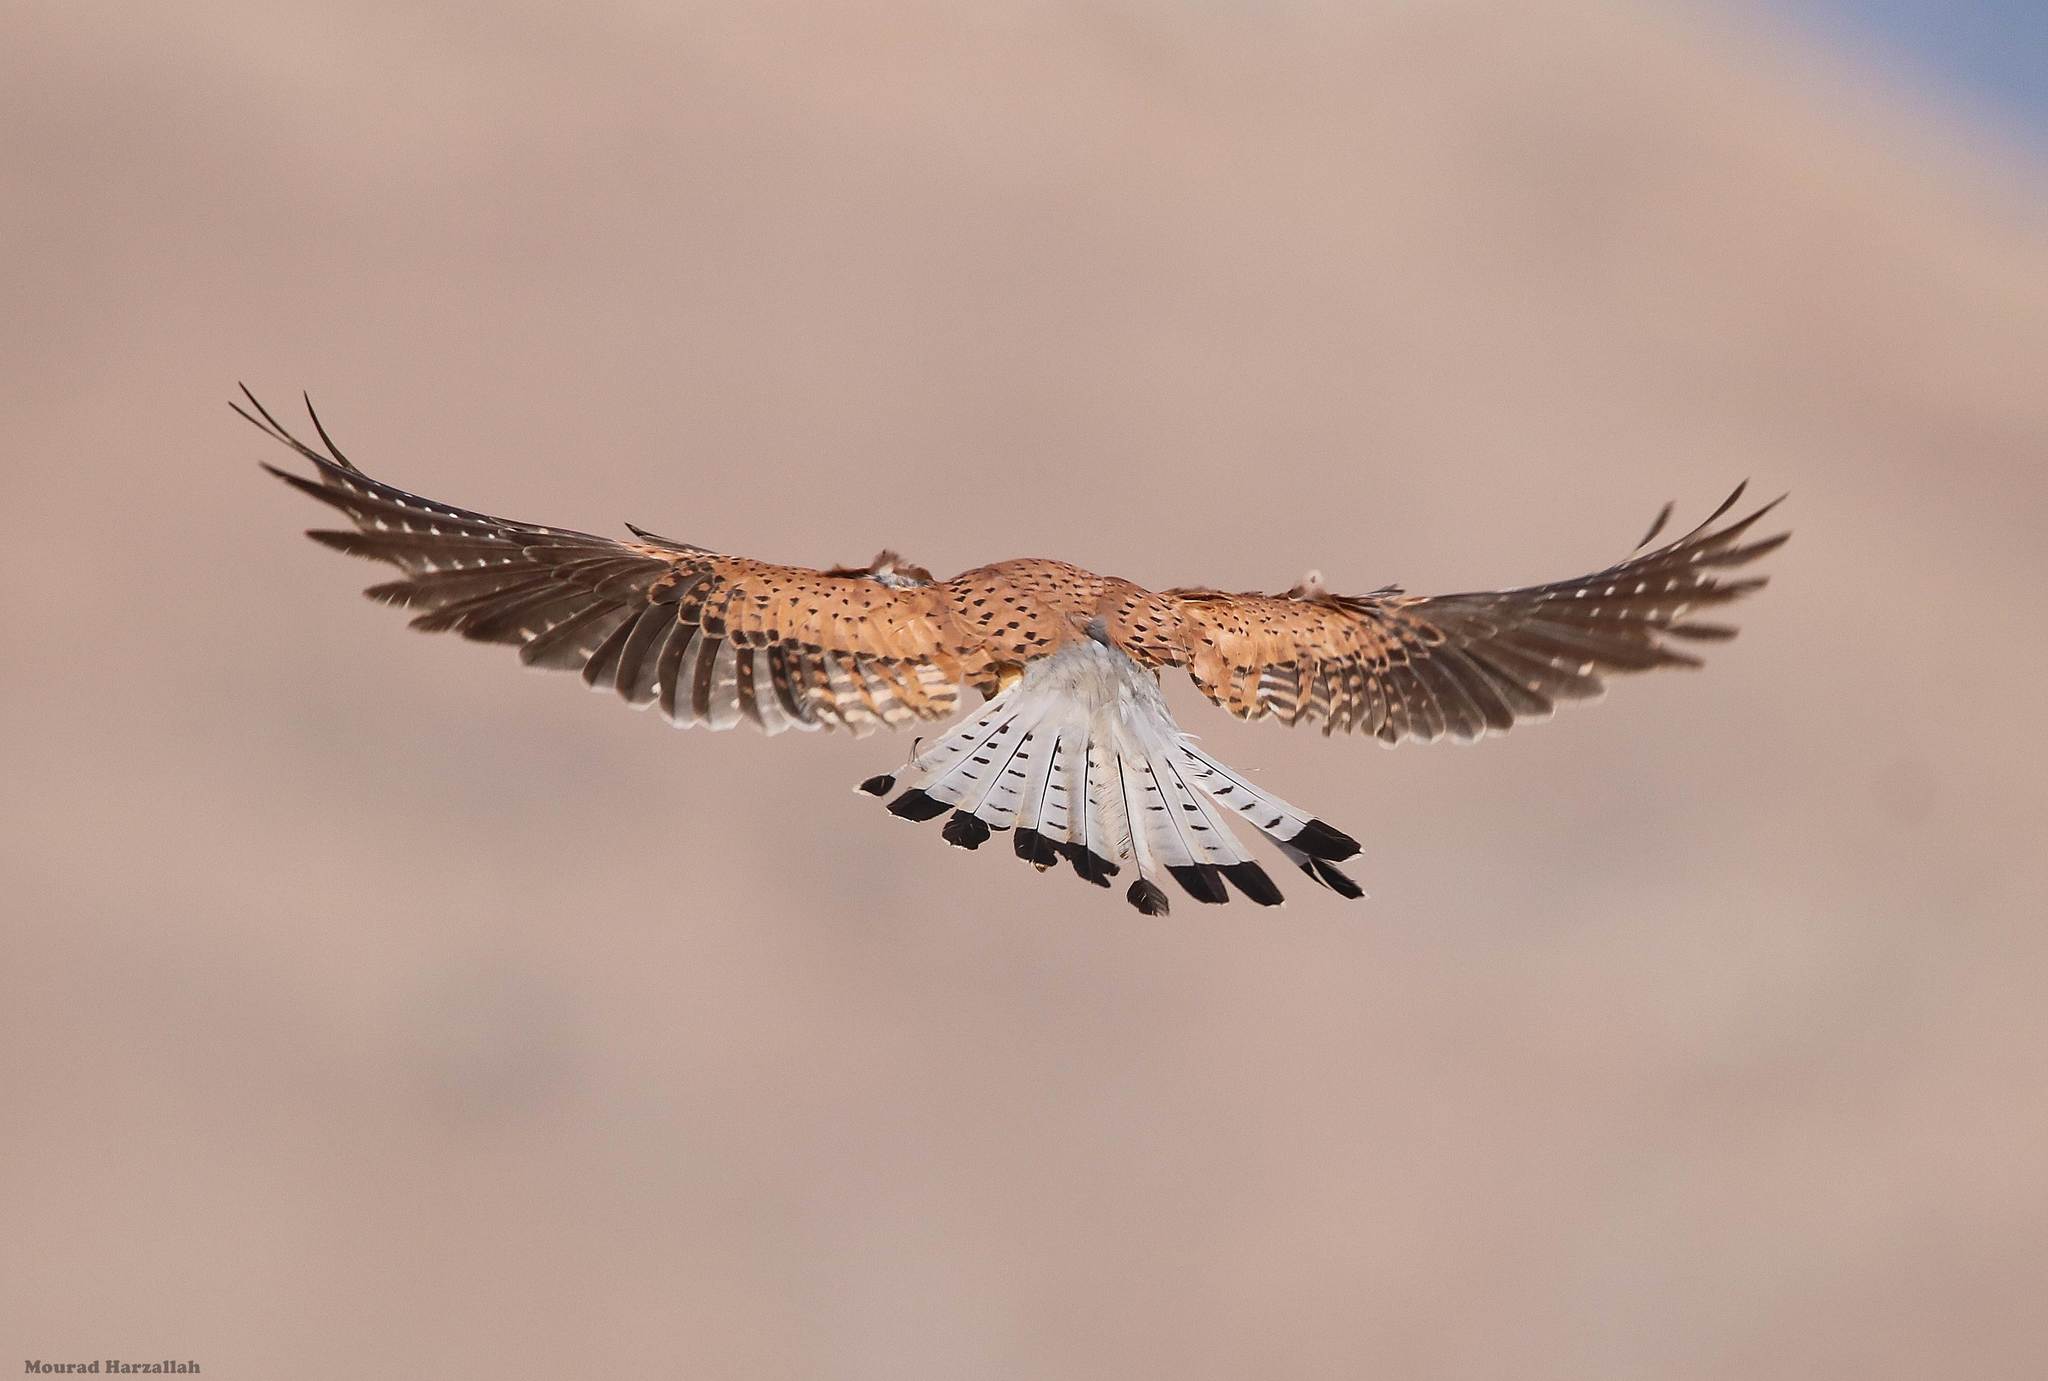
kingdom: Animalia
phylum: Chordata
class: Aves
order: Falconiformes
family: Falconidae
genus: Falco
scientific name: Falco tinnunculus
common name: Common kestrel
